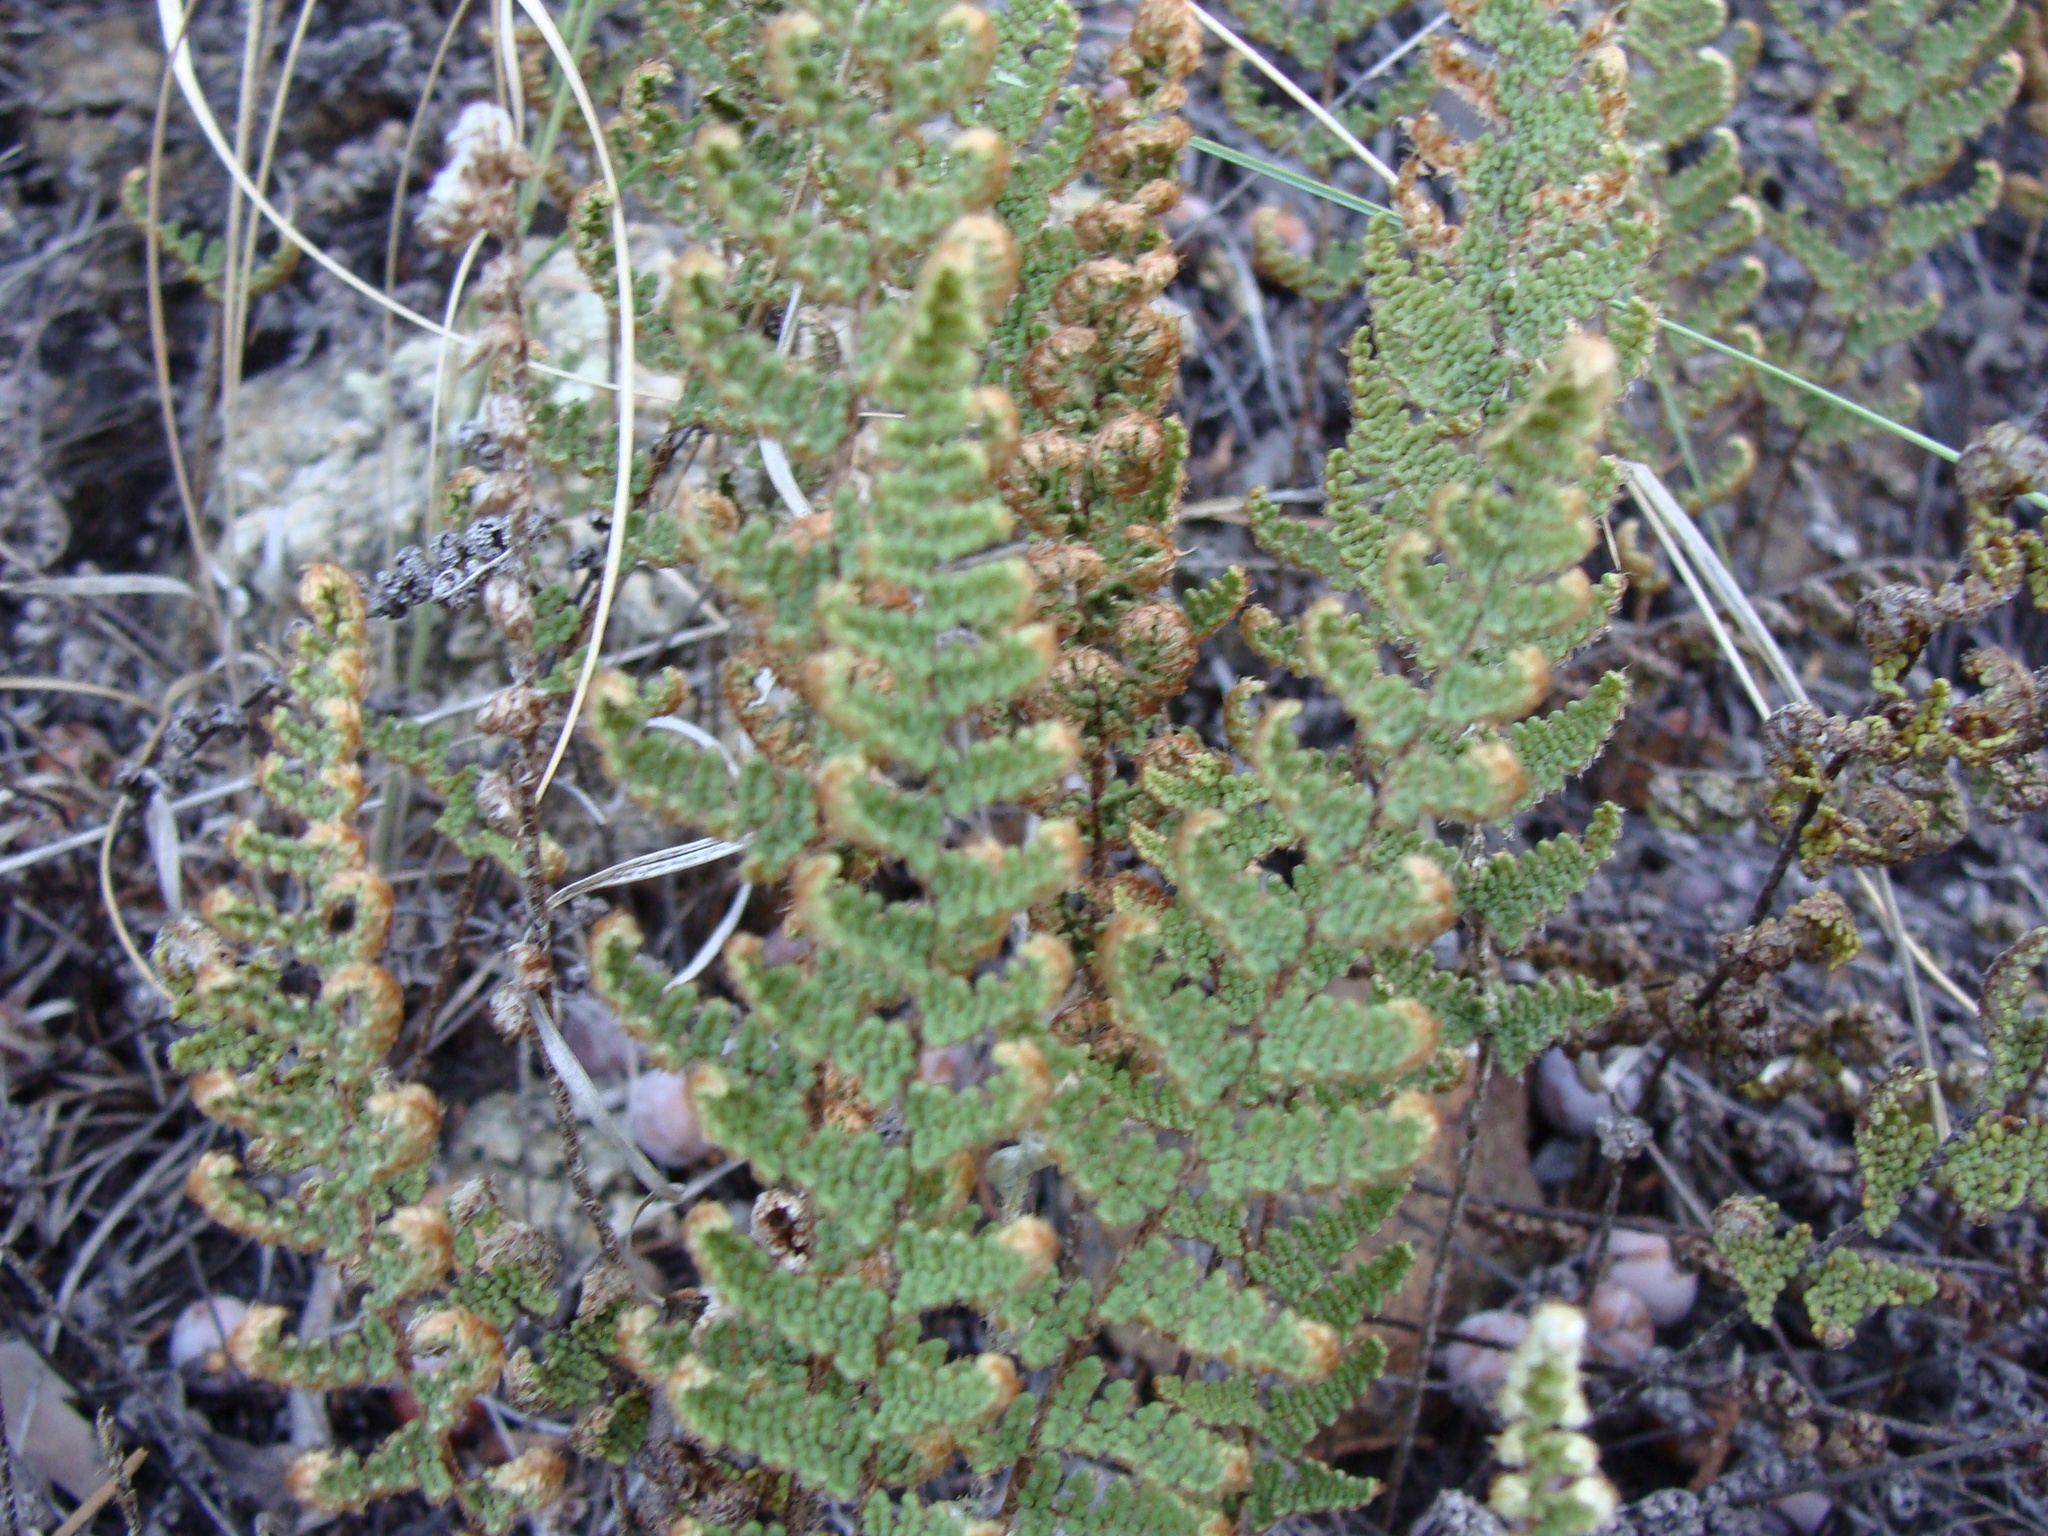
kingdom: Plantae
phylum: Tracheophyta
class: Polypodiopsida
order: Polypodiales
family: Pteridaceae
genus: Myriopteris
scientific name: Myriopteris fendleri
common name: Fendler's lip fern
